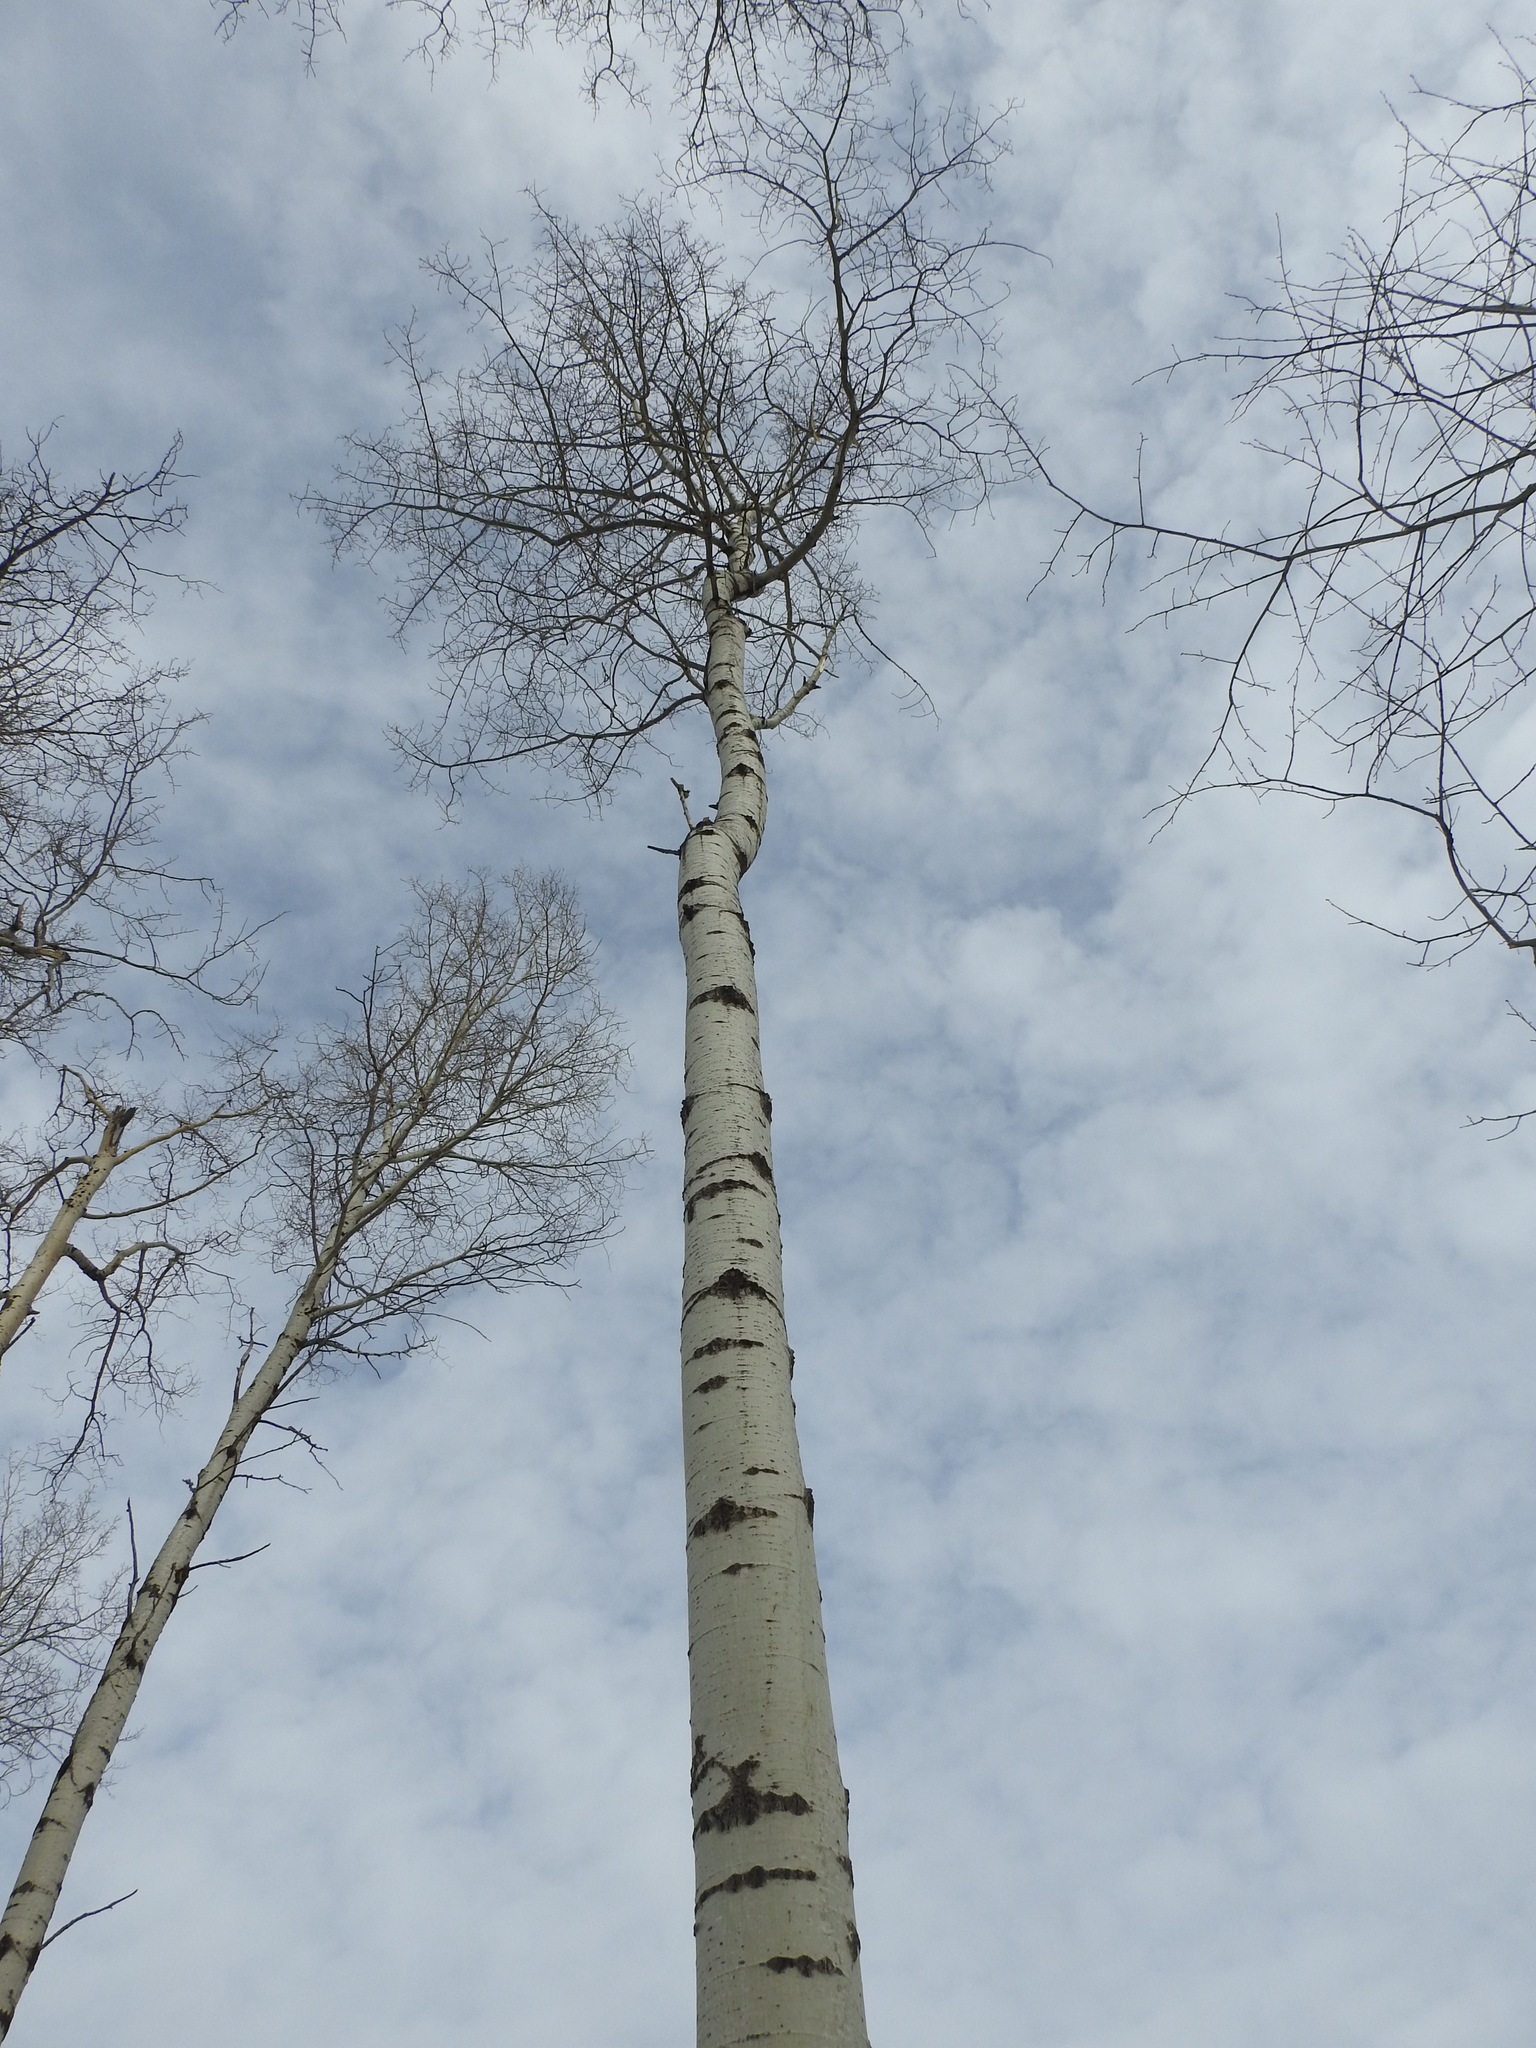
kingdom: Plantae
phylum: Tracheophyta
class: Magnoliopsida
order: Malpighiales
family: Salicaceae
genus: Populus
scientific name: Populus tremuloides
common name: Quaking aspen
